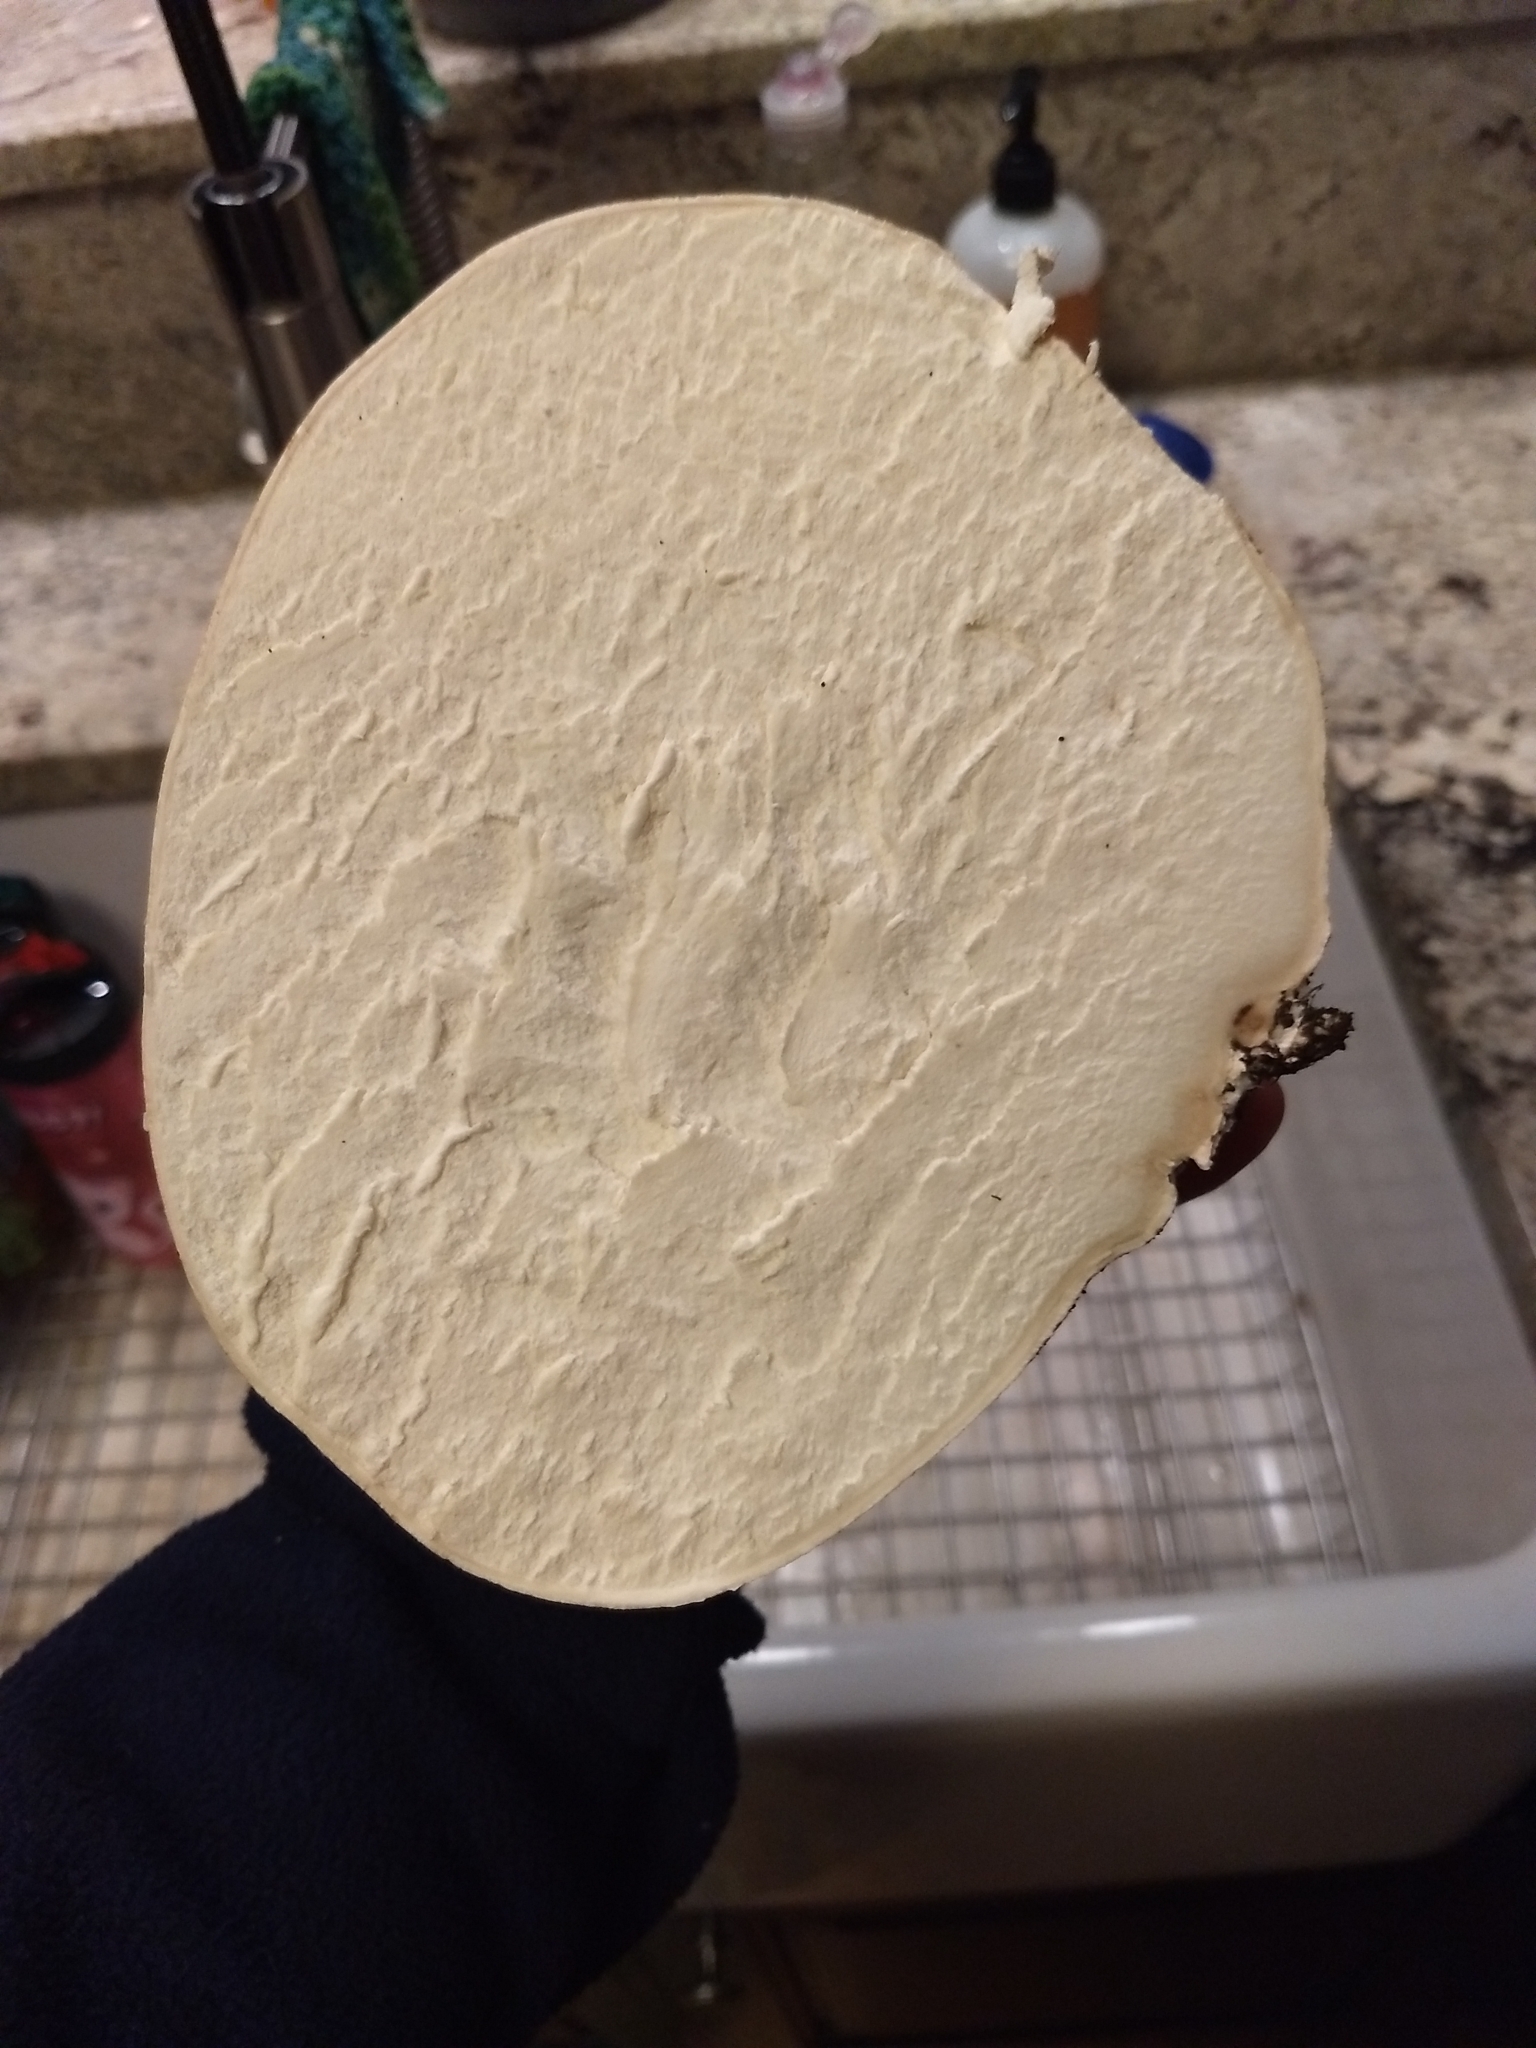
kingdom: Fungi
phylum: Basidiomycota
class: Agaricomycetes
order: Agaricales
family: Lycoperdaceae
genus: Calvatia
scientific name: Calvatia gigantea
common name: Giant puffball
